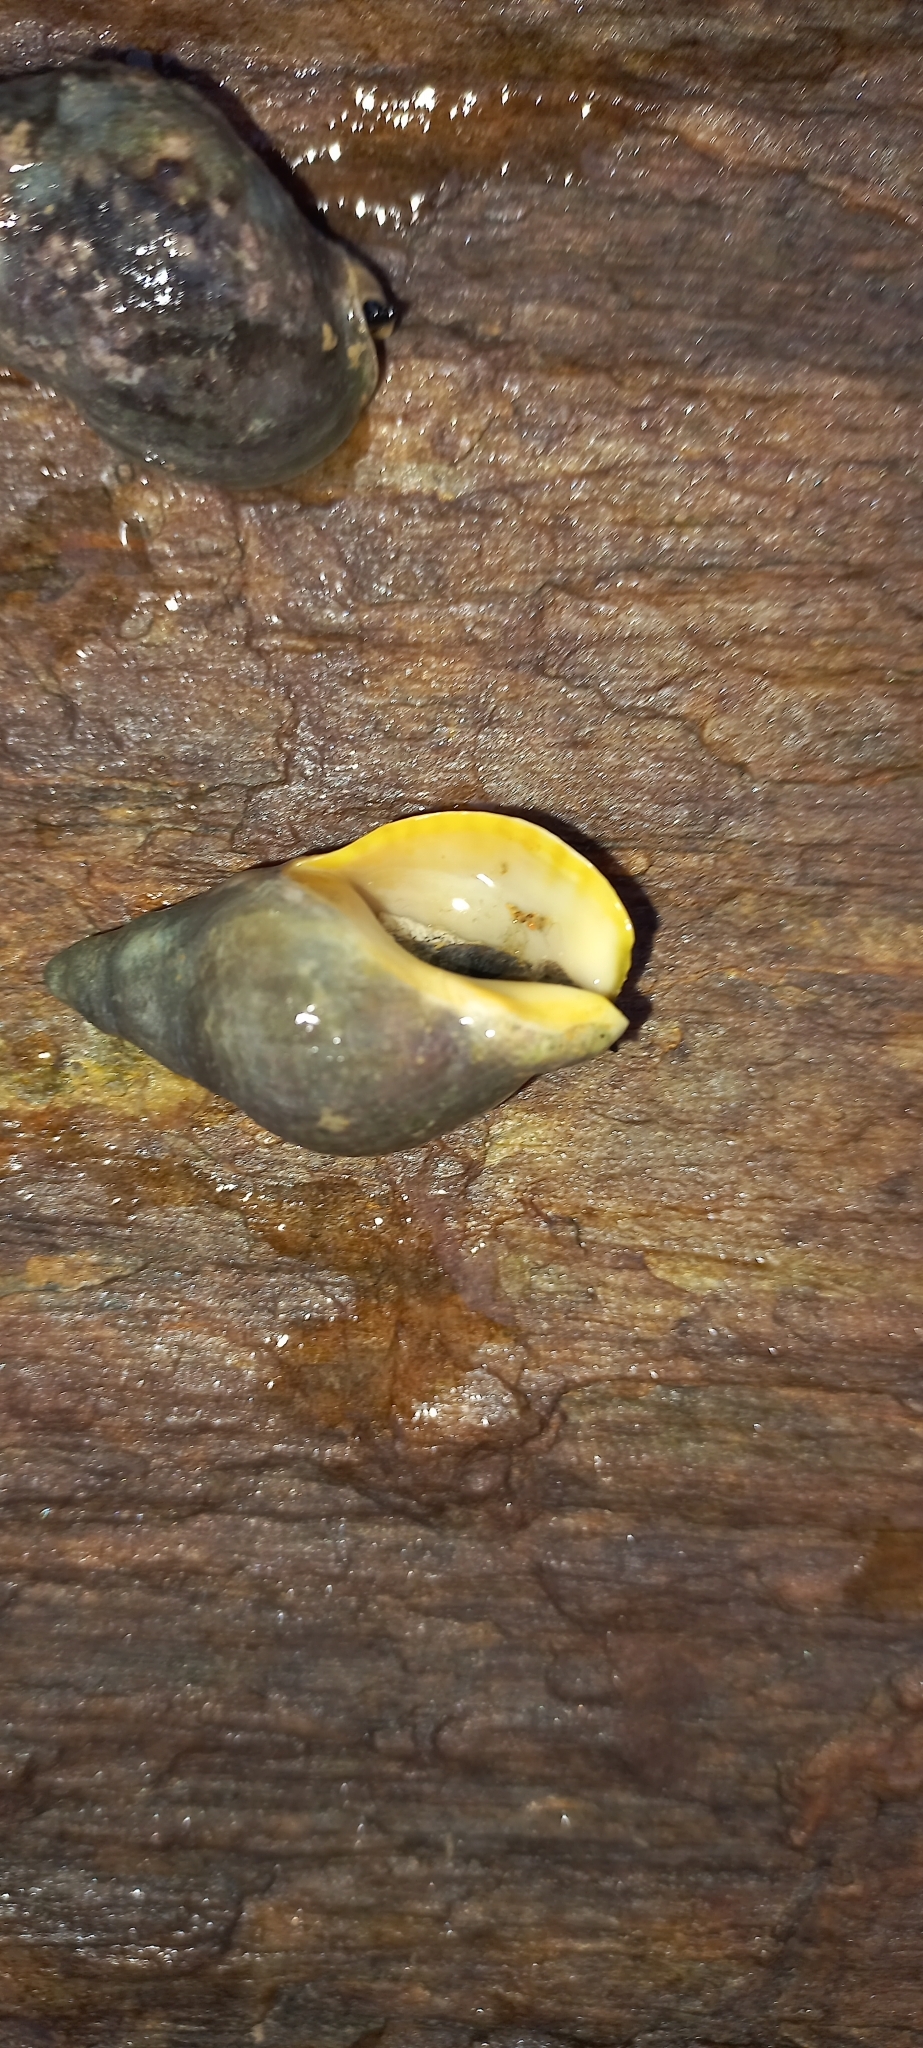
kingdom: Animalia
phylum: Mollusca
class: Gastropoda
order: Neogastropoda
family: Cominellidae
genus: Cominella
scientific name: Cominella maculosa
